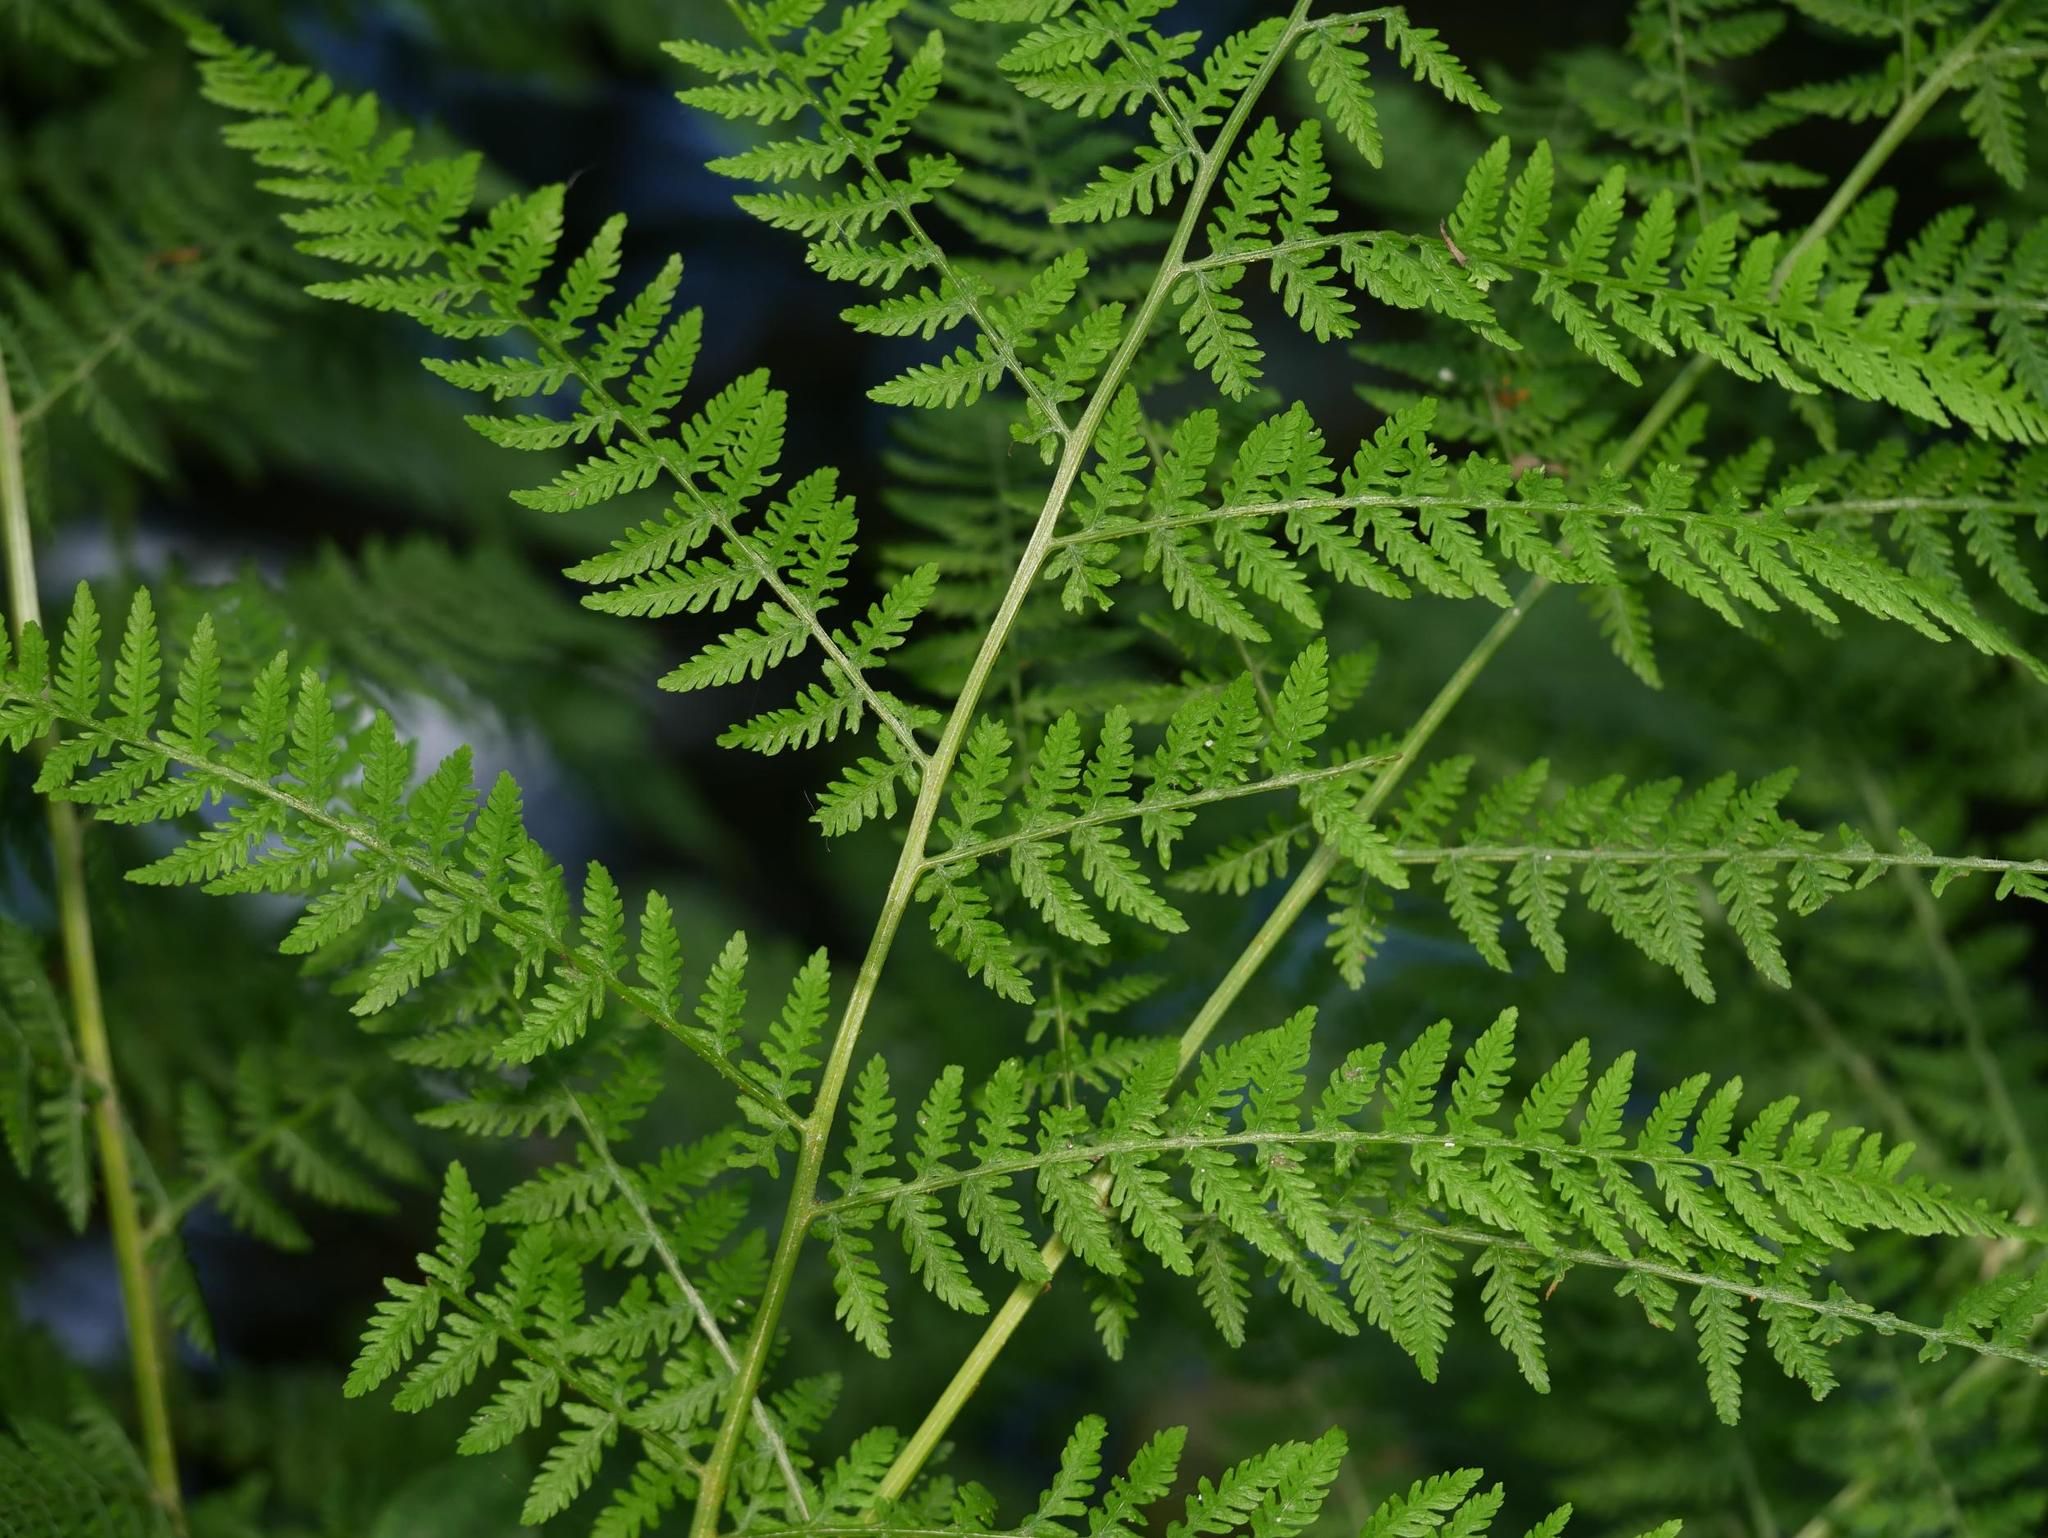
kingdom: Plantae
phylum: Tracheophyta
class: Polypodiopsida
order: Polypodiales
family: Athyriaceae
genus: Athyrium
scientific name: Athyrium filix-femina
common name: Lady fern
